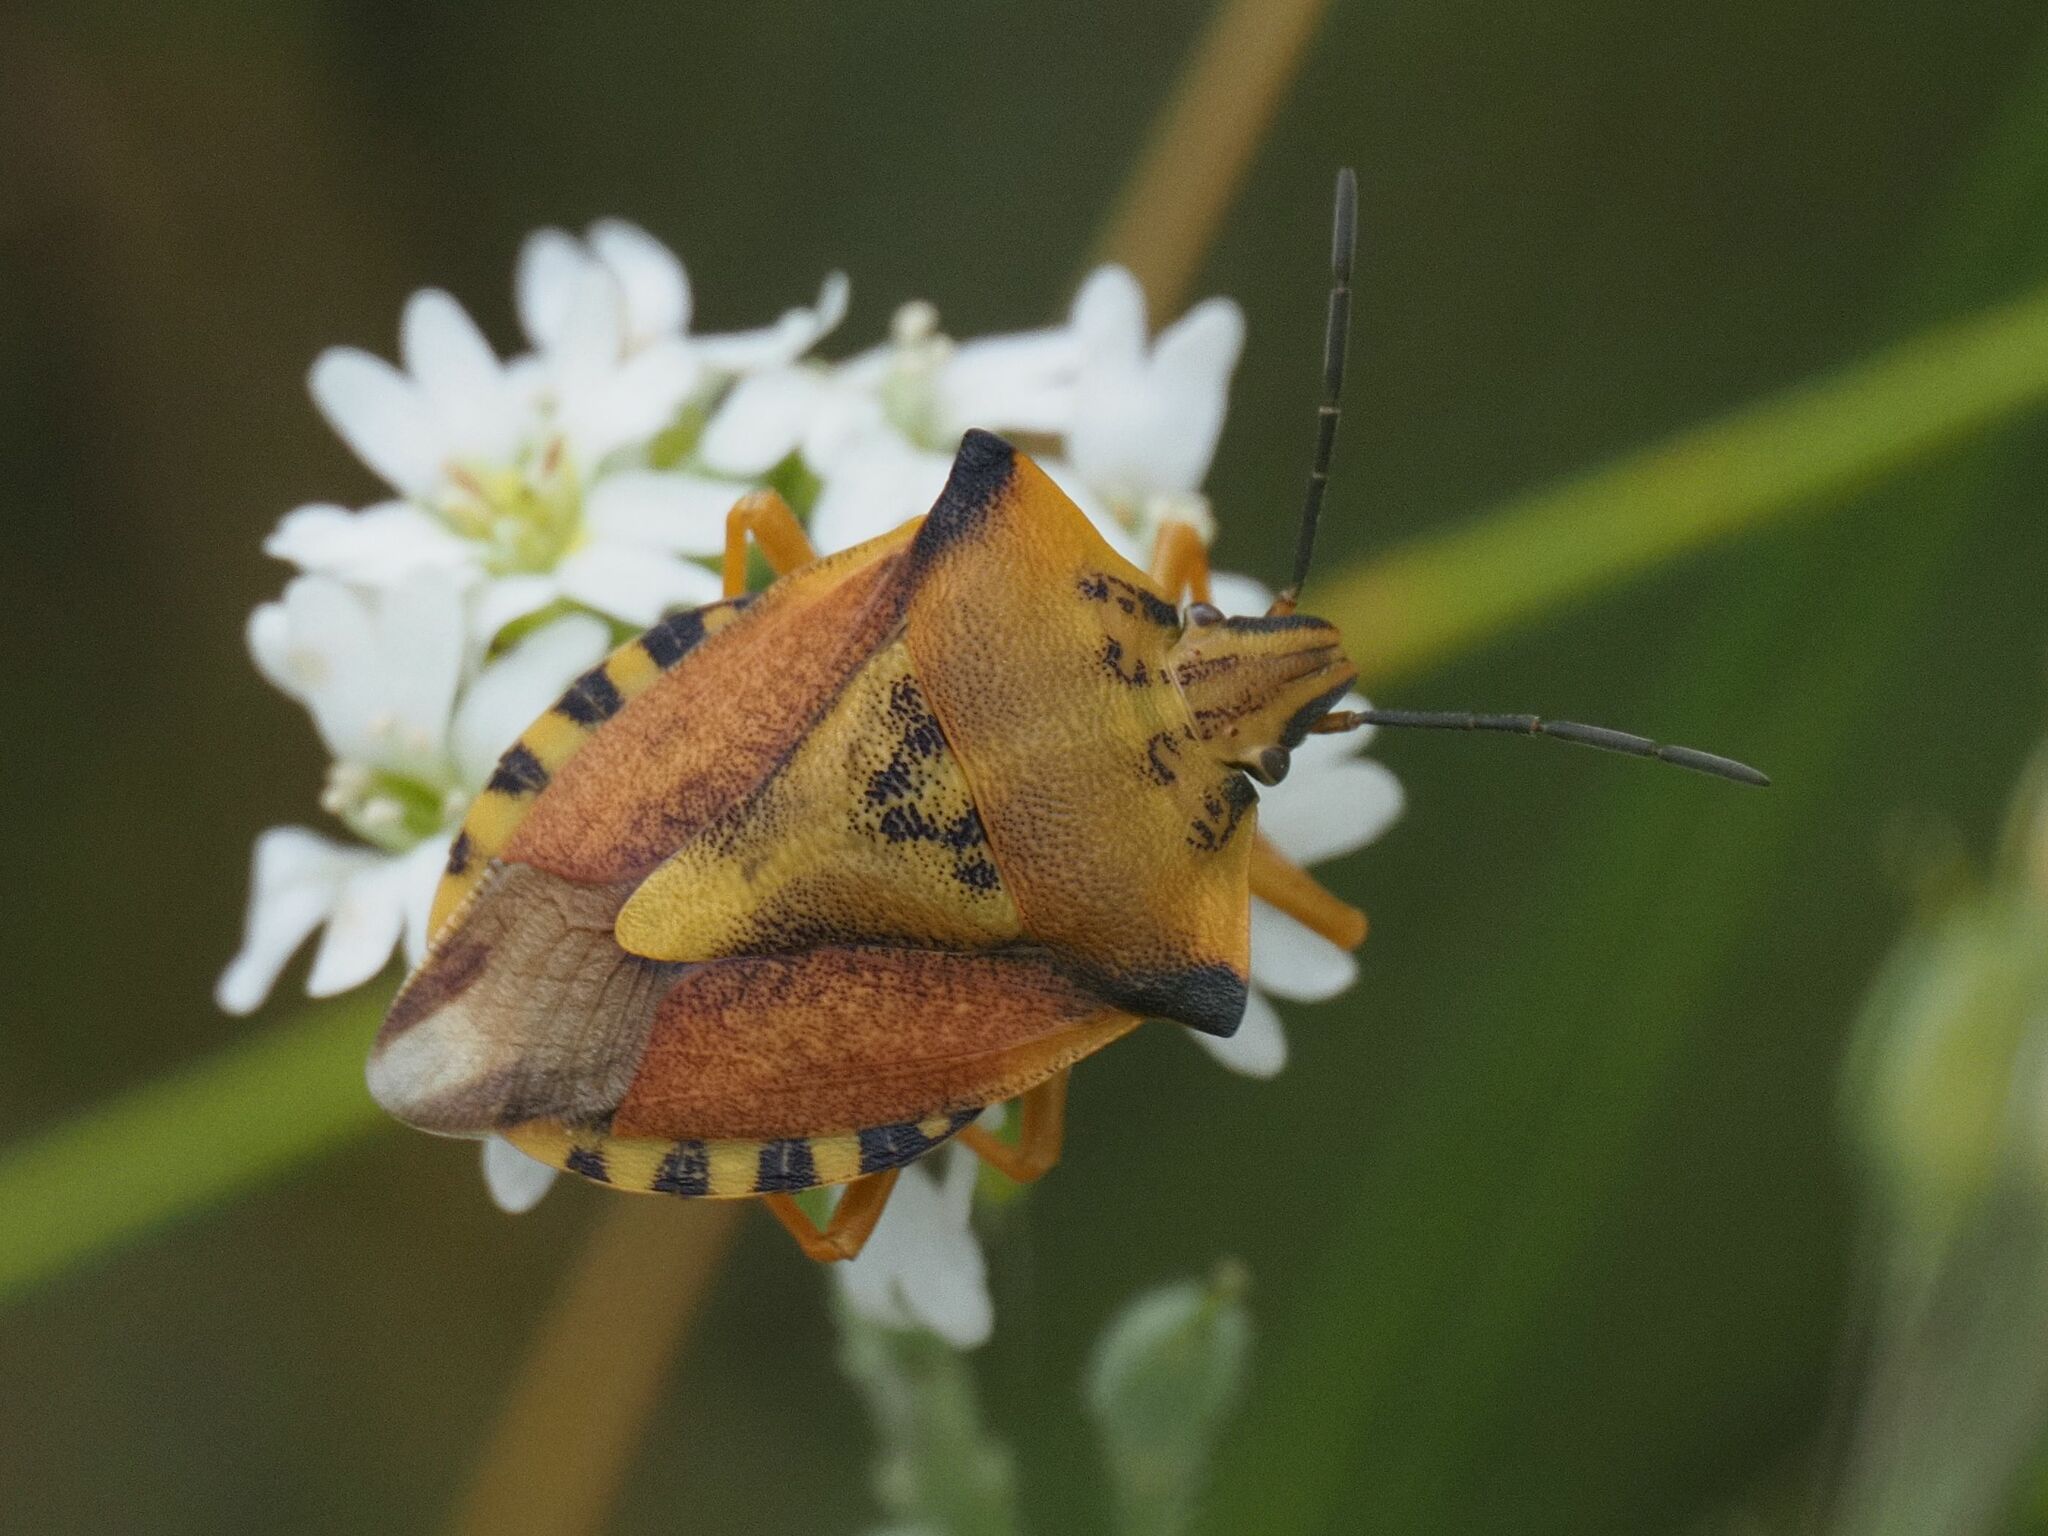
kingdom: Animalia
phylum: Arthropoda
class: Insecta
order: Hemiptera
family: Pentatomidae
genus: Carpocoris
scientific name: Carpocoris fuscispinus
